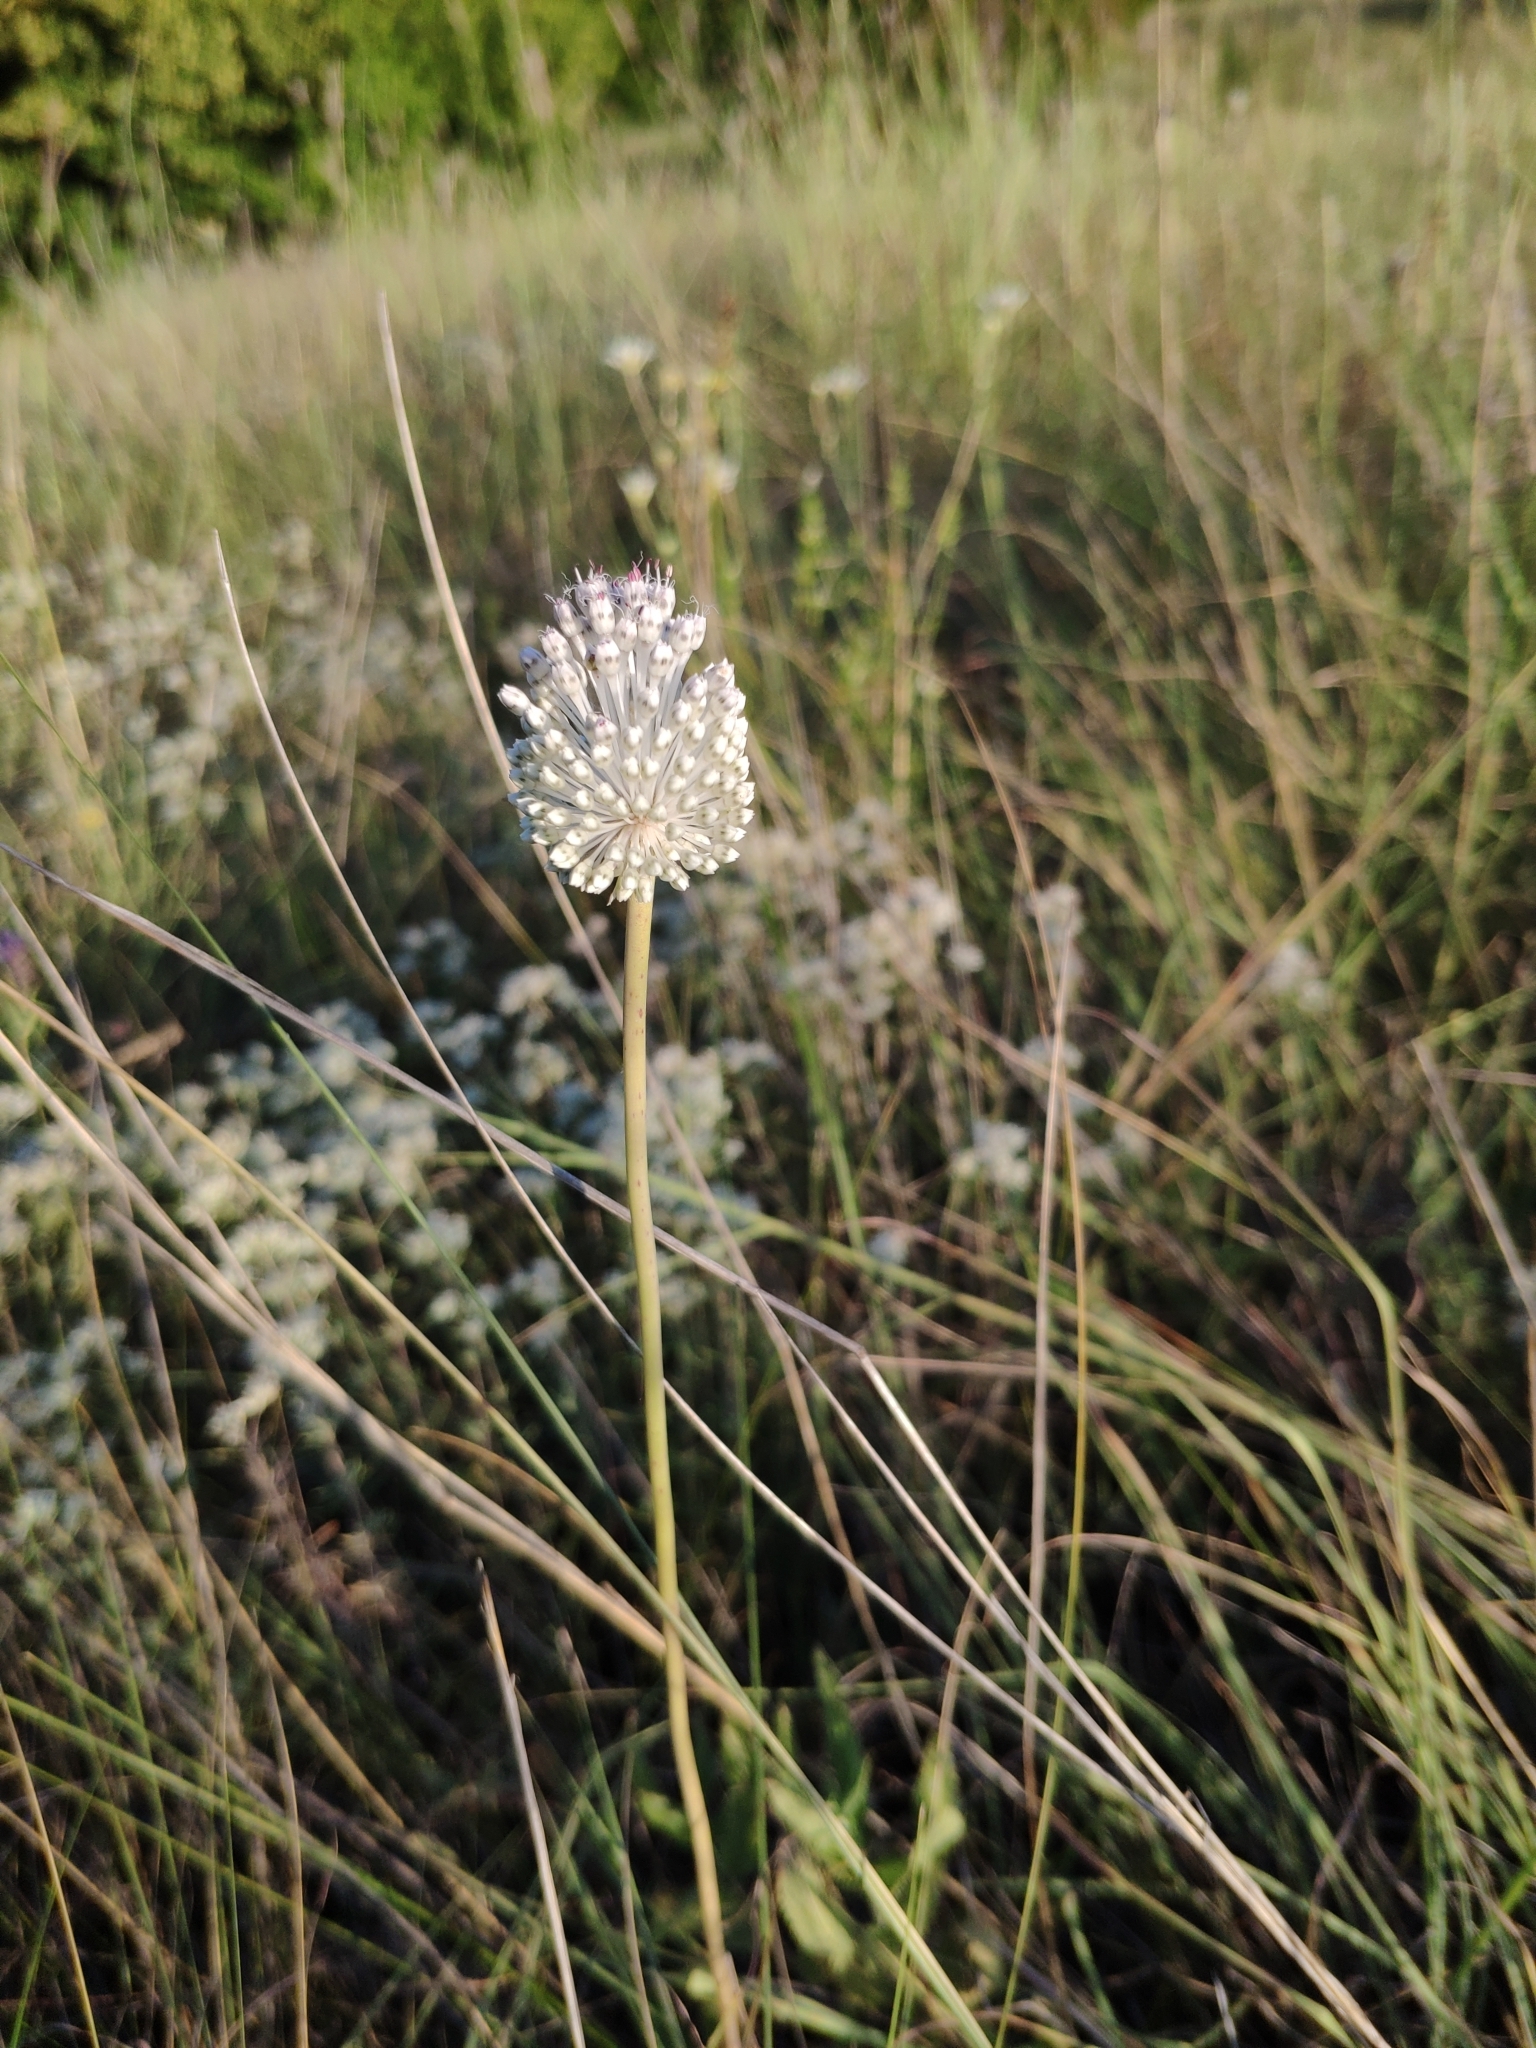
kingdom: Plantae
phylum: Tracheophyta
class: Liliopsida
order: Asparagales
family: Amaryllidaceae
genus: Allium
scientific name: Allium guttatum
